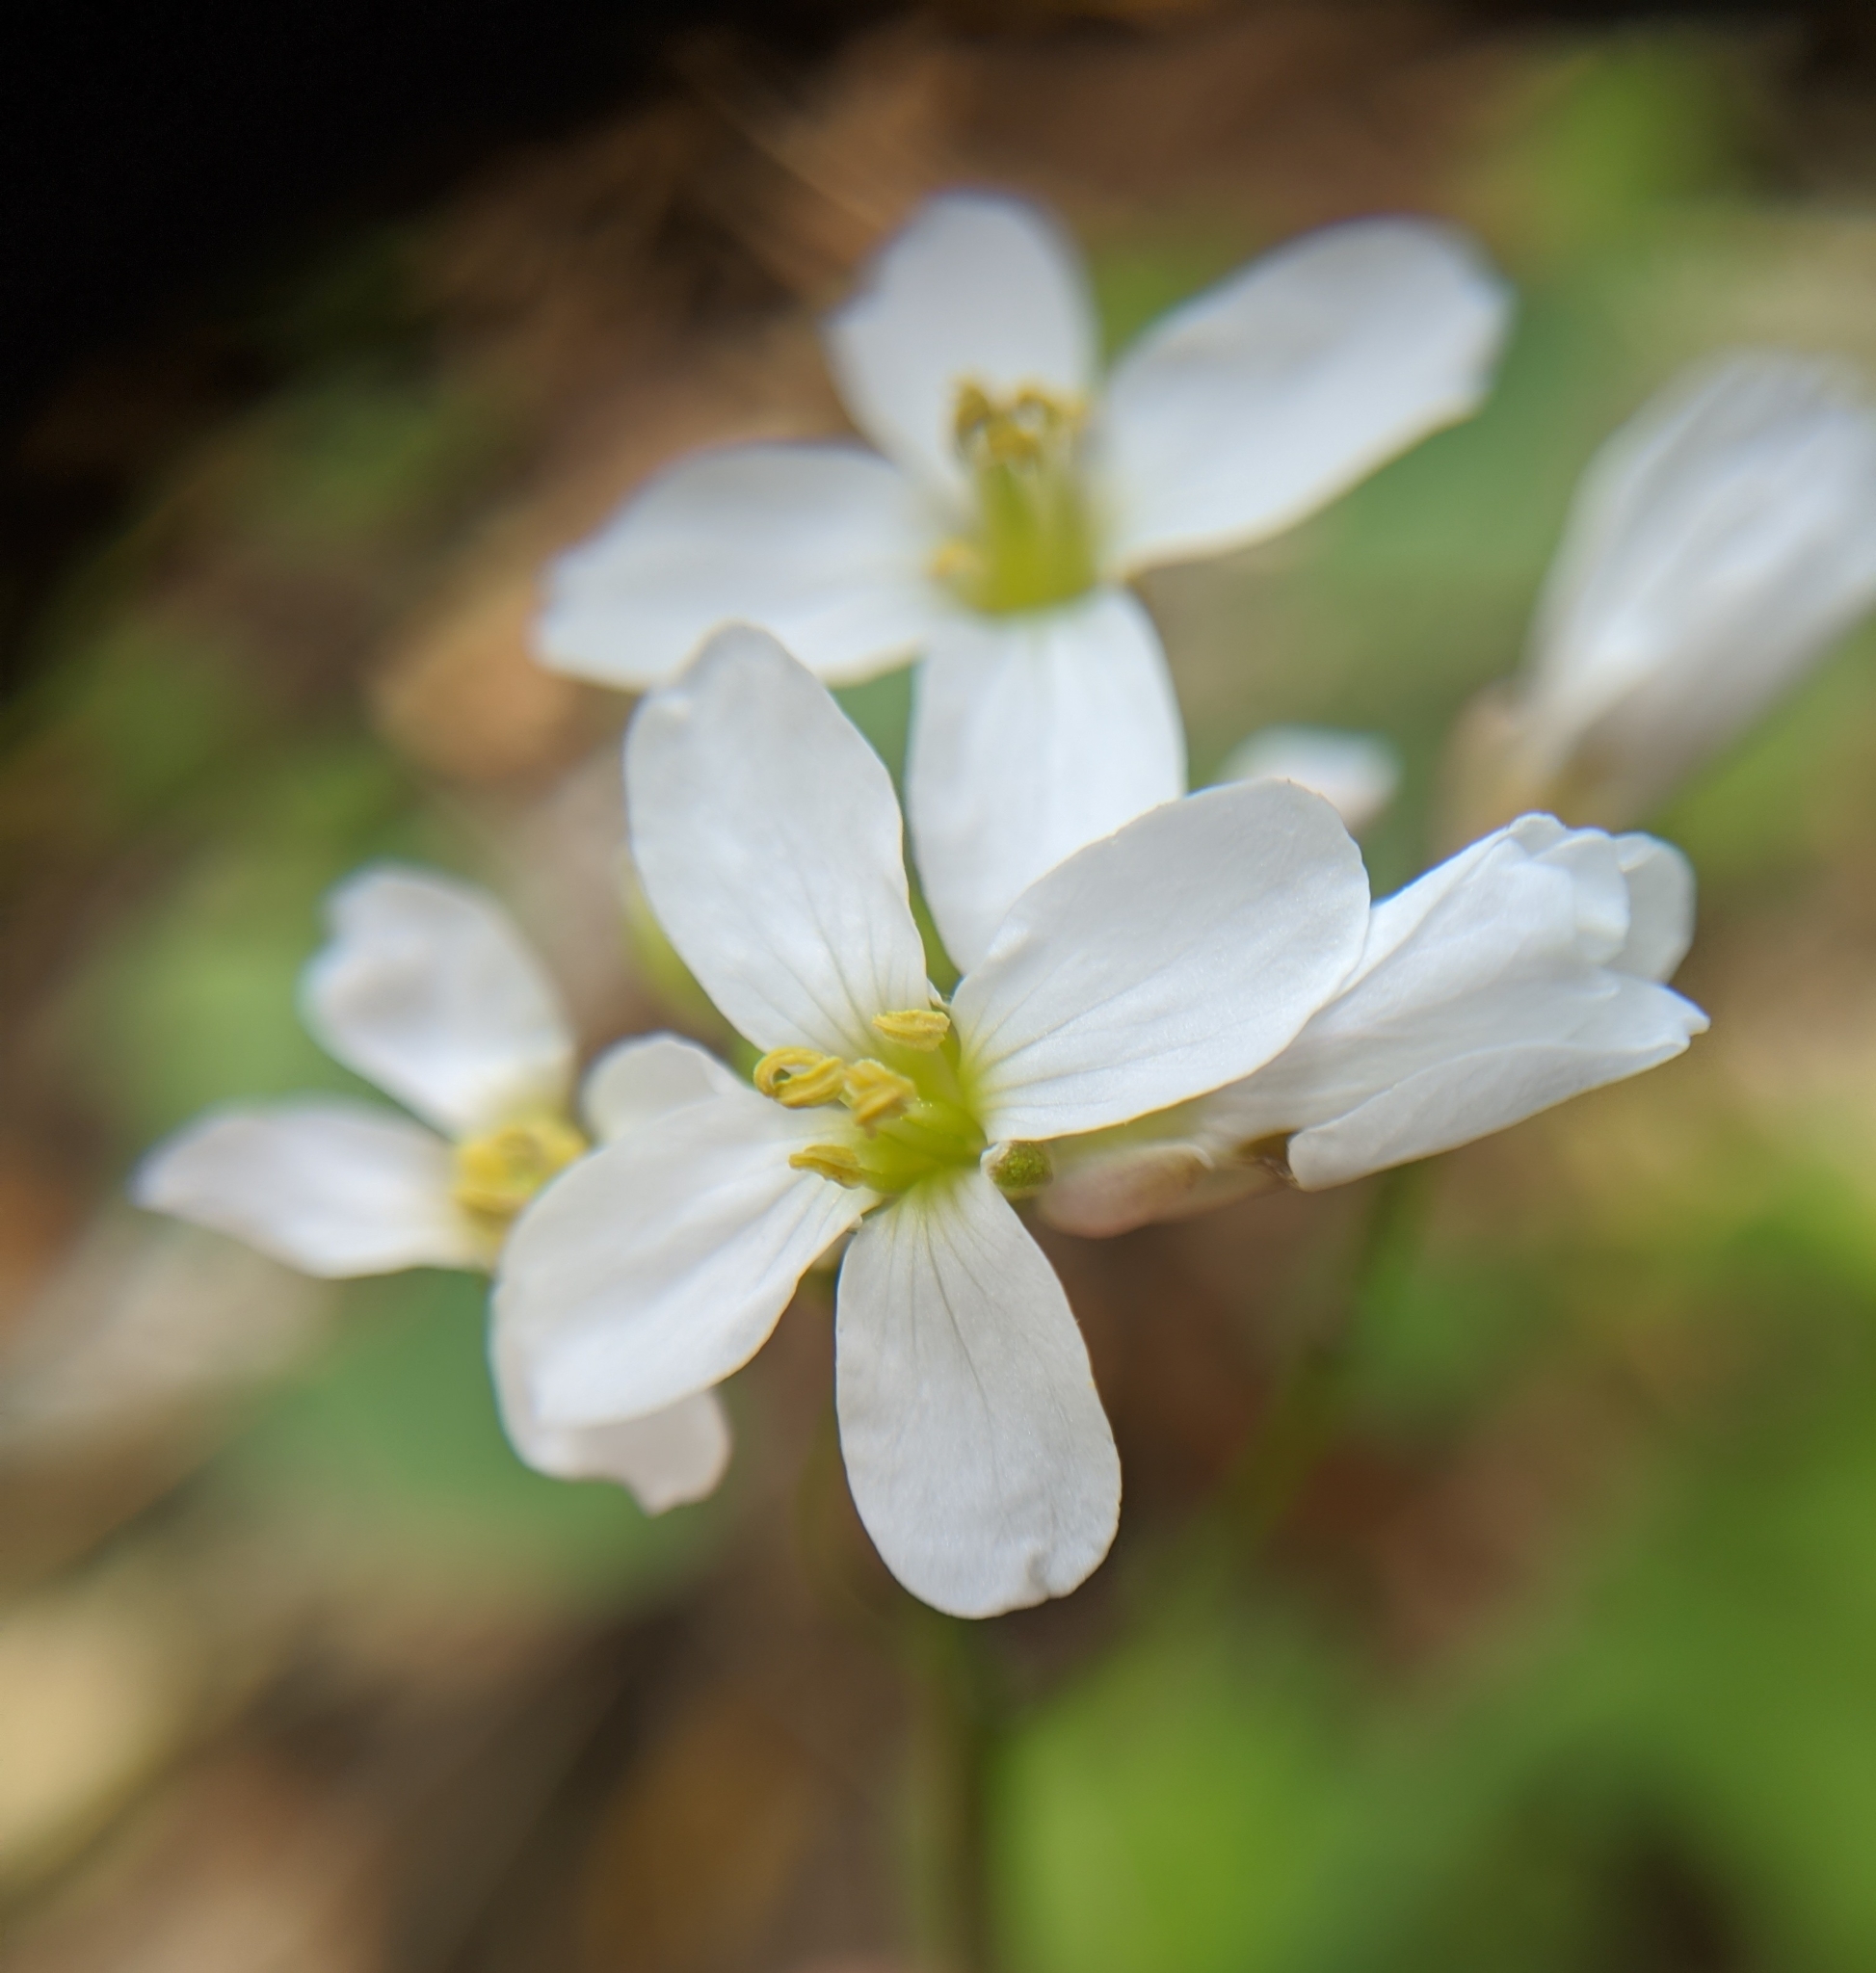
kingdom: Plantae
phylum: Tracheophyta
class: Magnoliopsida
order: Brassicales
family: Brassicaceae
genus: Cardamine
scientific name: Cardamine californica
